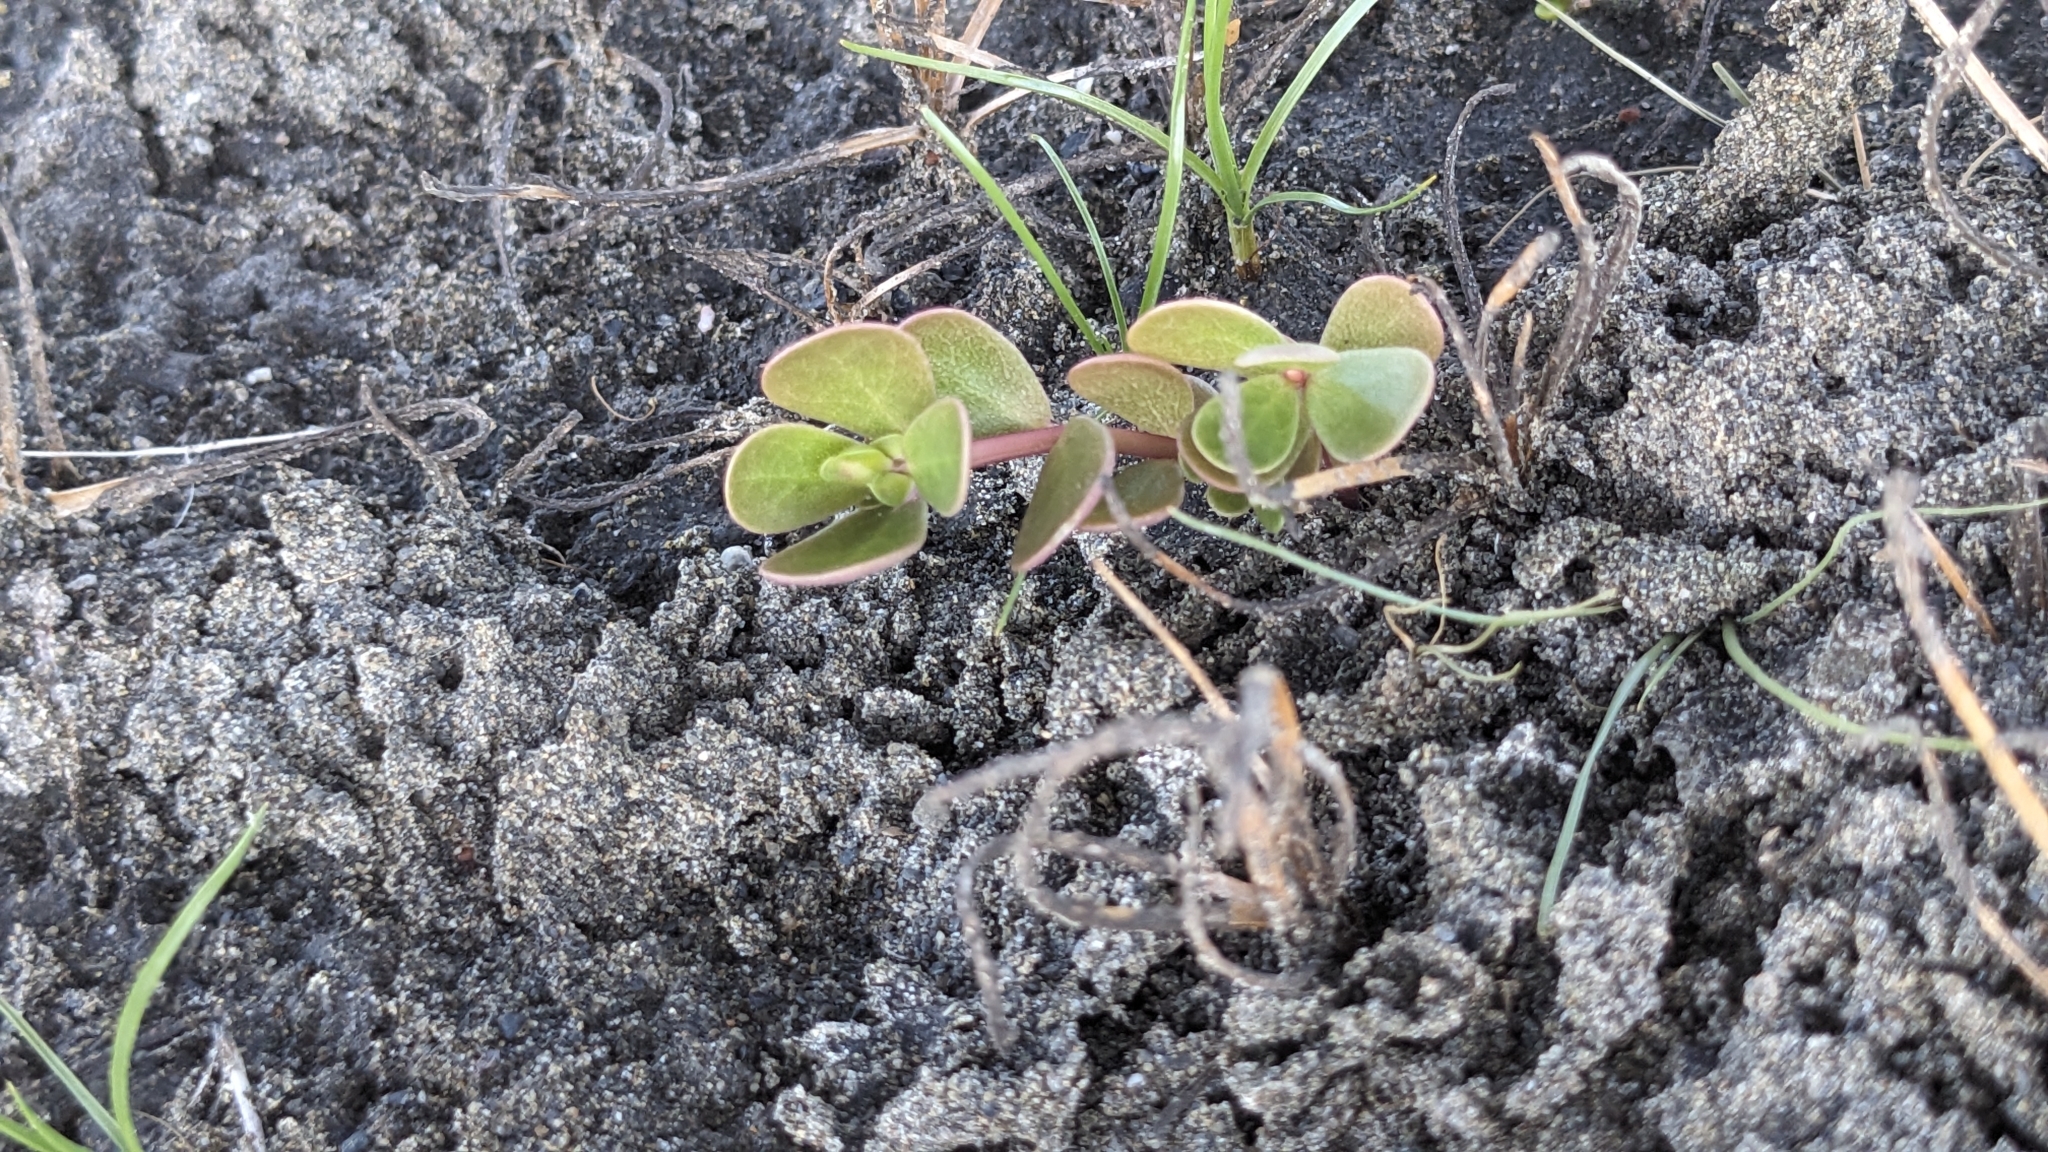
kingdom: Plantae
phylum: Tracheophyta
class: Magnoliopsida
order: Caryophyllales
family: Portulacaceae
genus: Portulaca
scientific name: Portulaca oleracea
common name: Common purslane
